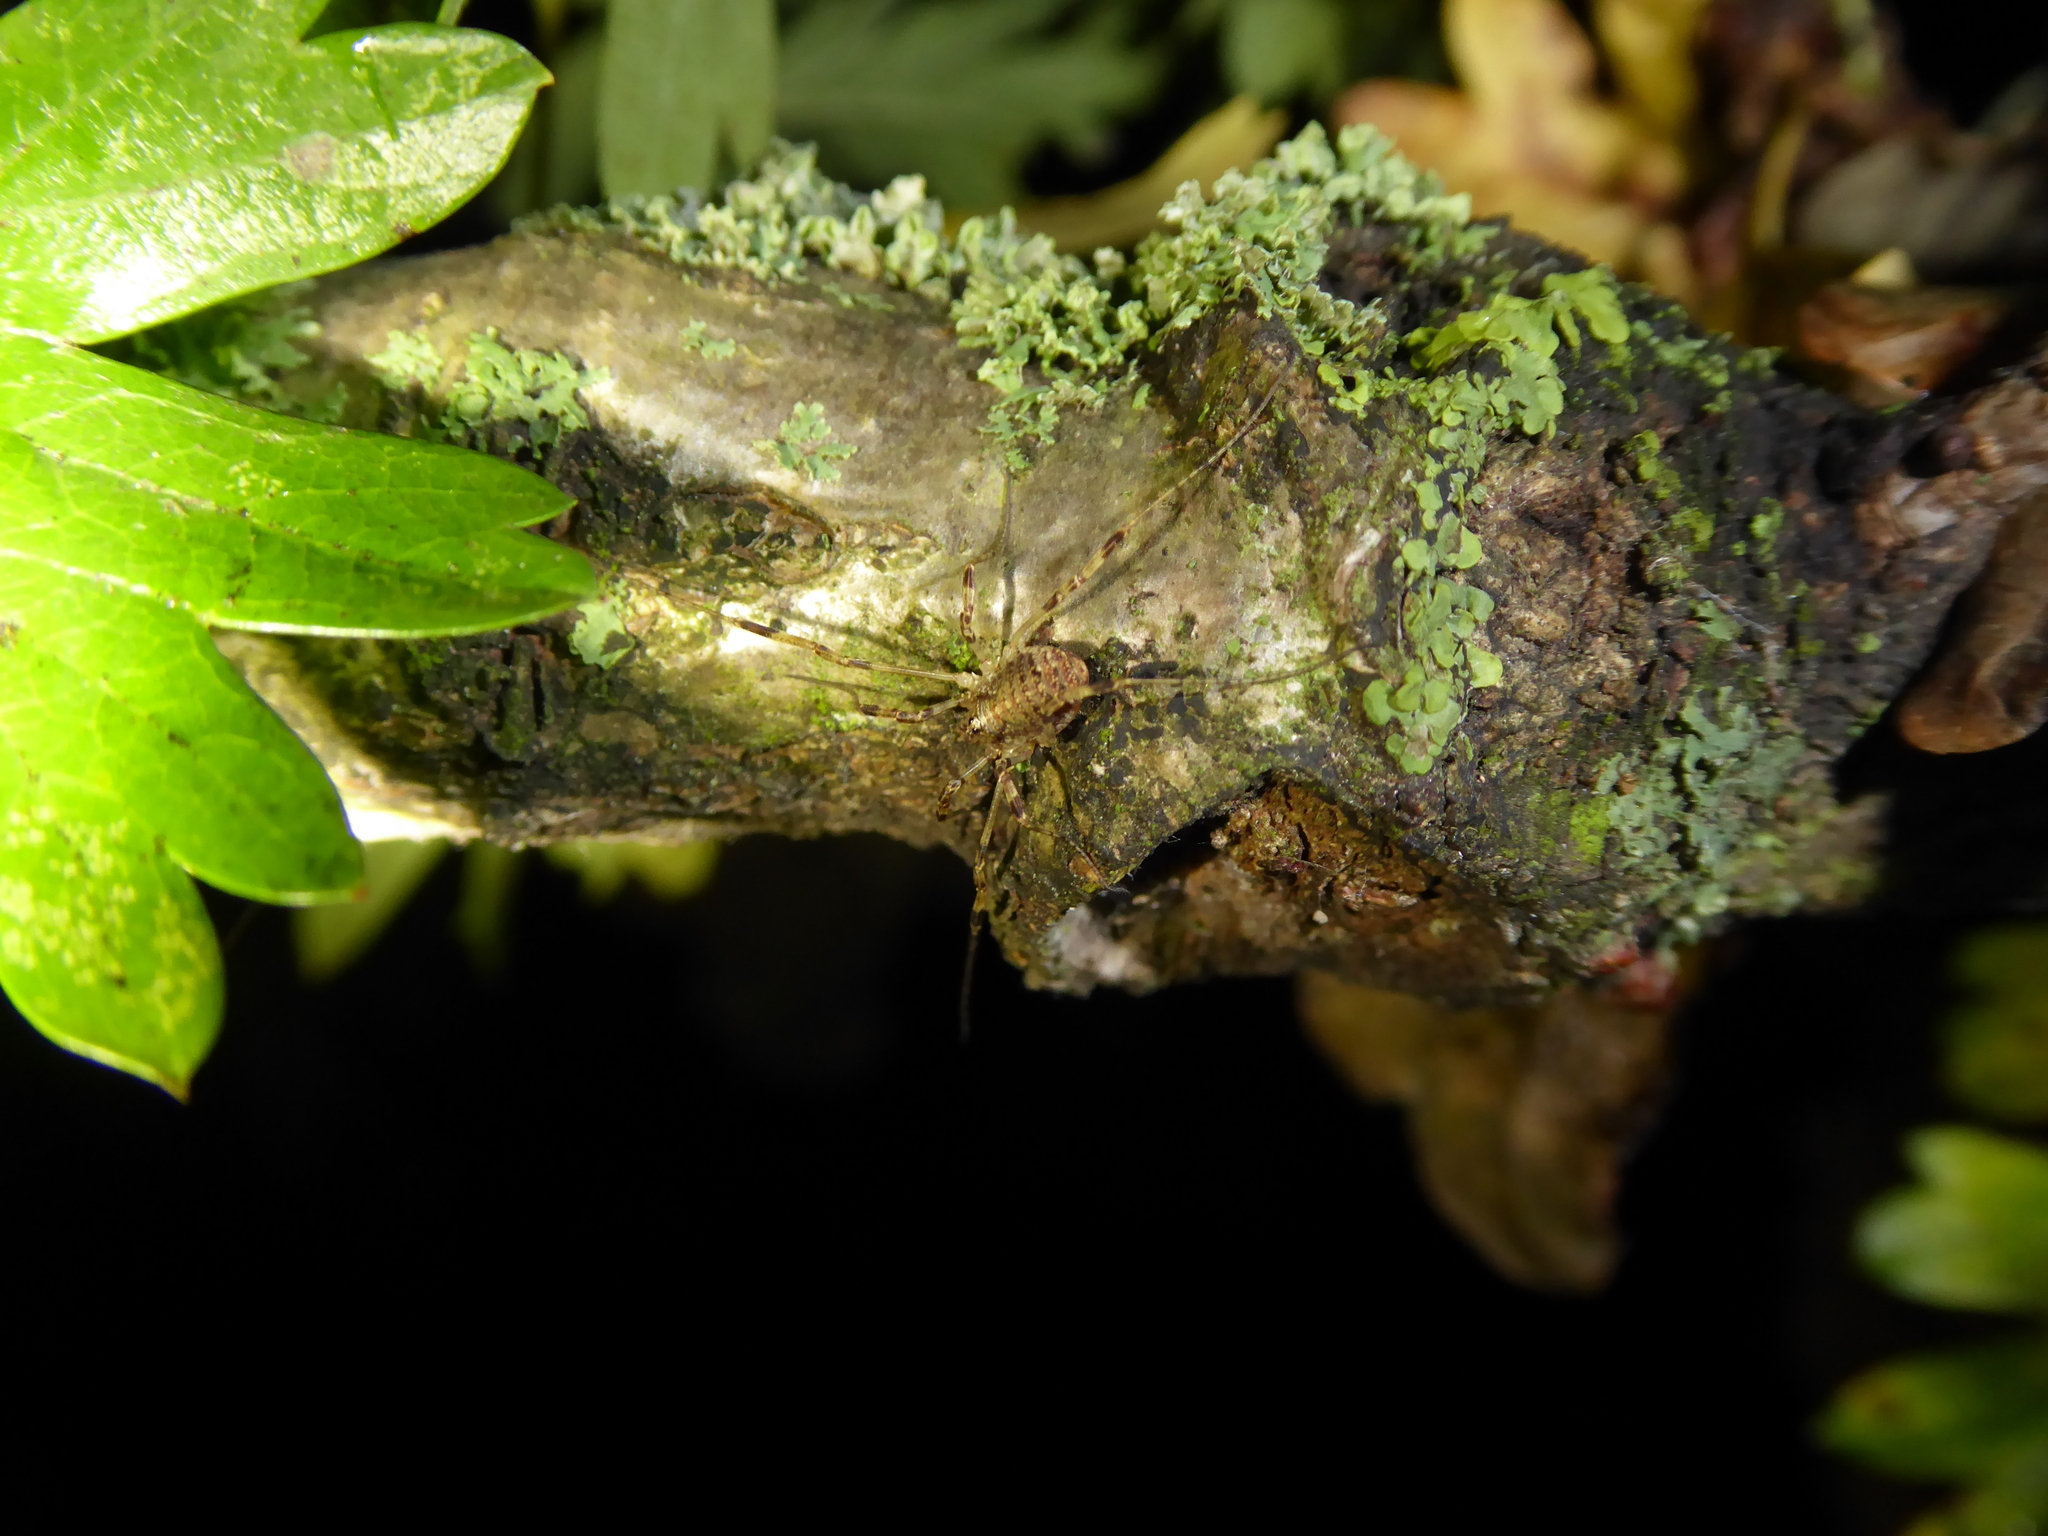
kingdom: Animalia
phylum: Arthropoda
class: Arachnida
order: Opiliones
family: Phalangiidae
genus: Paroligolophus
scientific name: Paroligolophus agrestis
